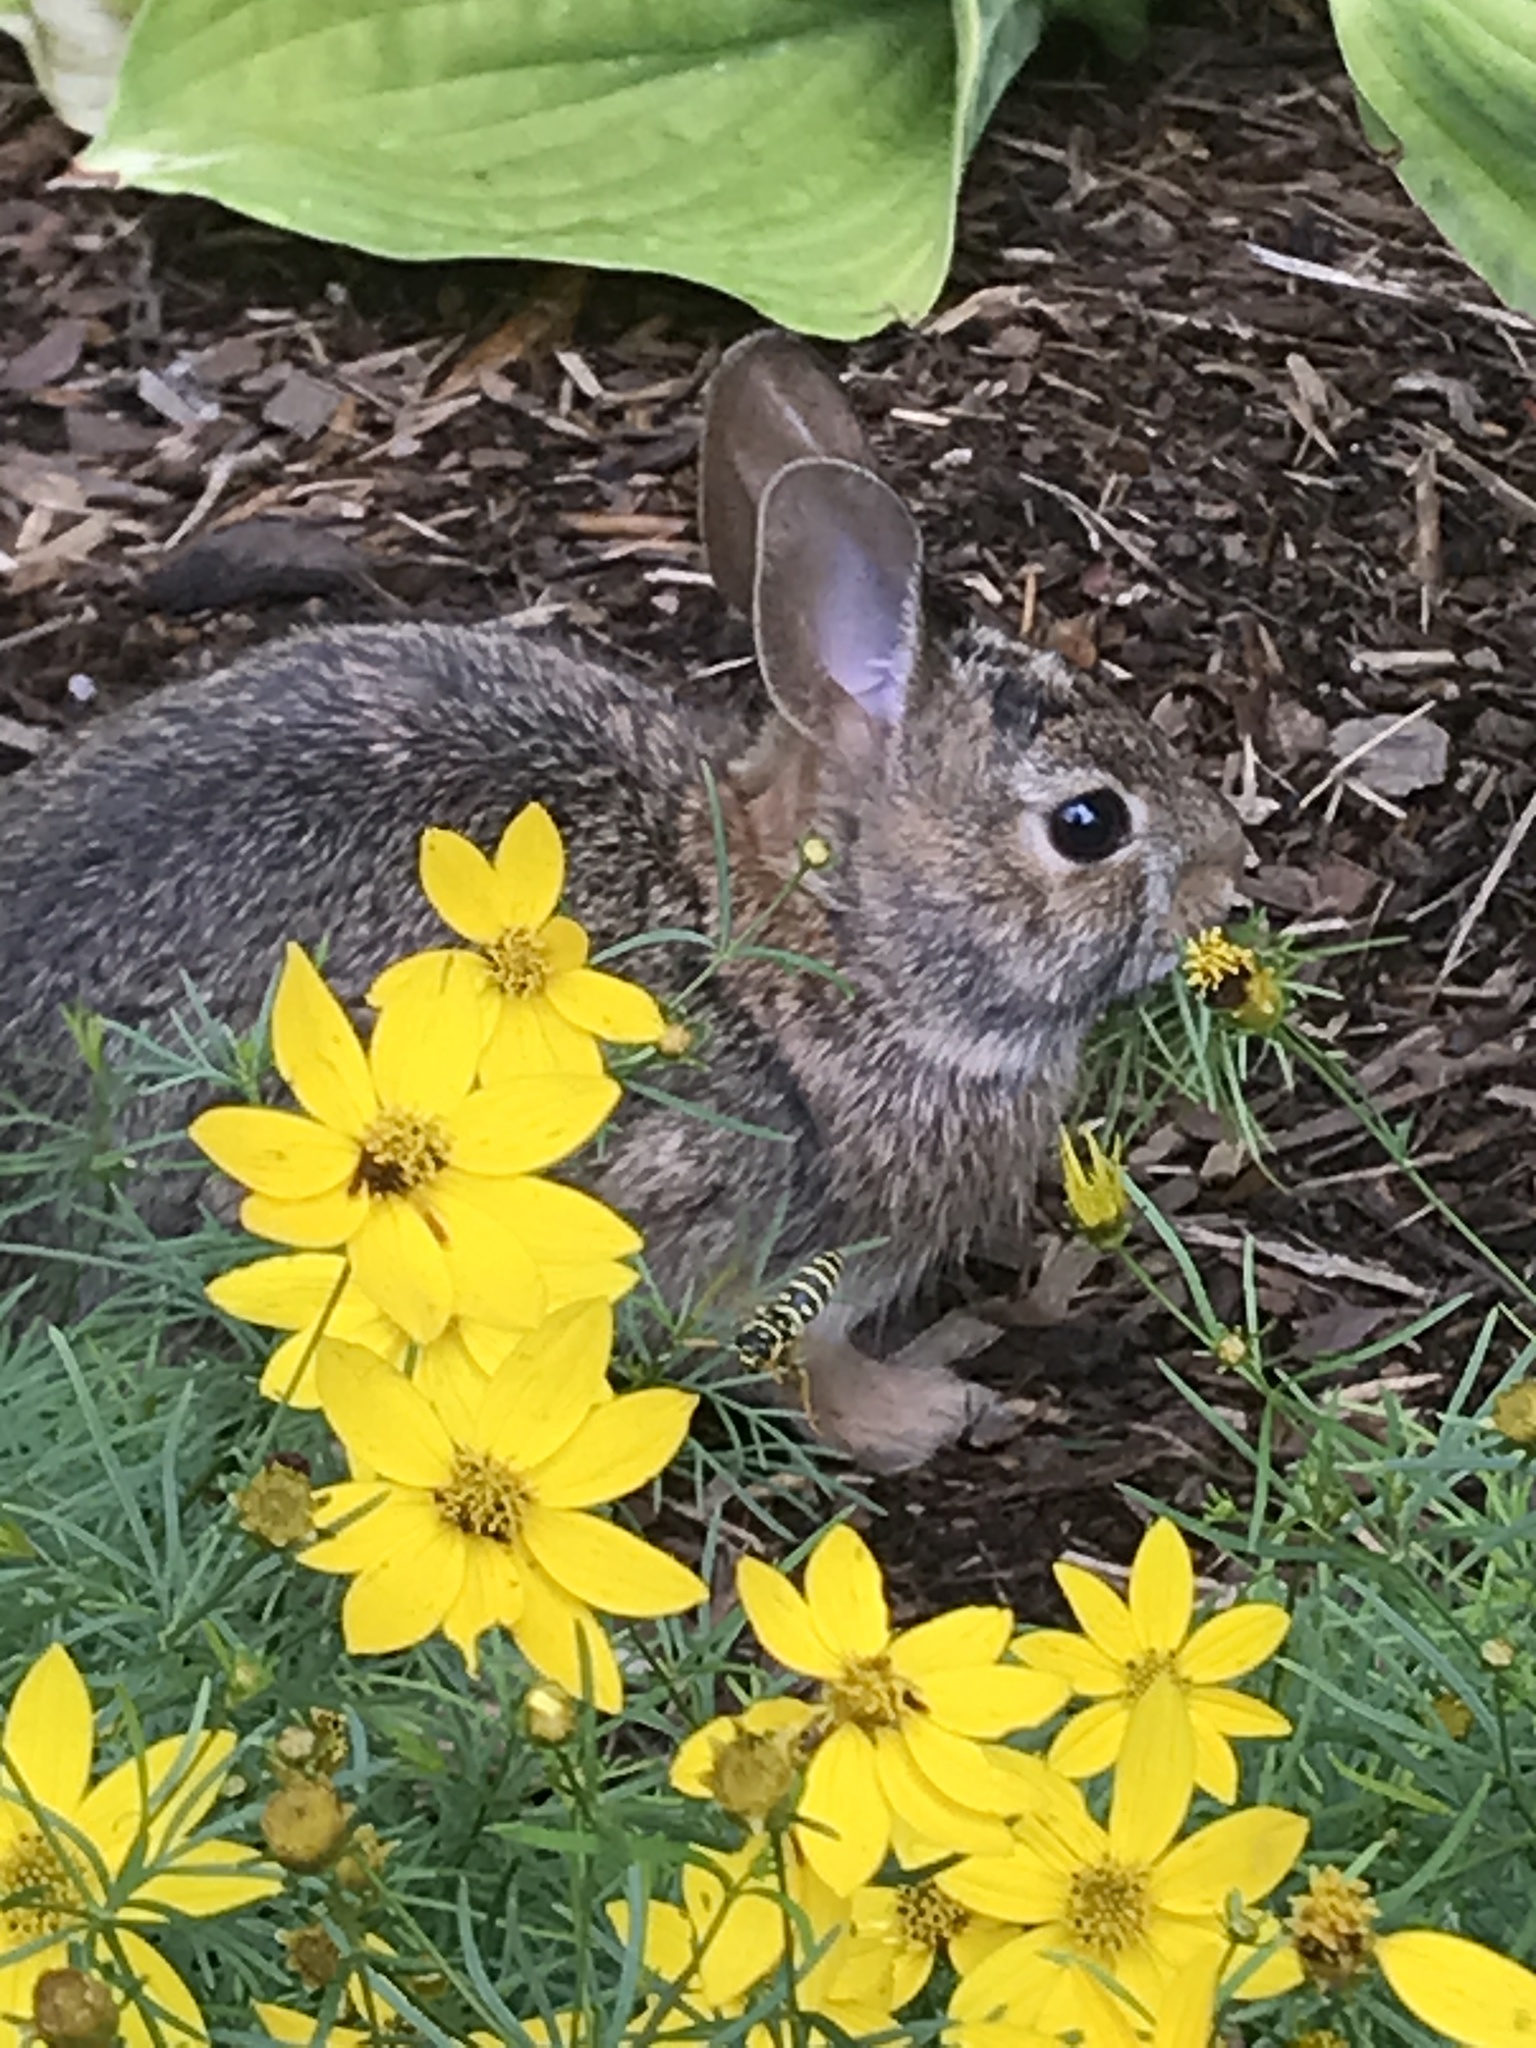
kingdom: Animalia
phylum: Chordata
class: Mammalia
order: Lagomorpha
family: Leporidae
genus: Sylvilagus
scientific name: Sylvilagus floridanus
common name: Eastern cottontail
